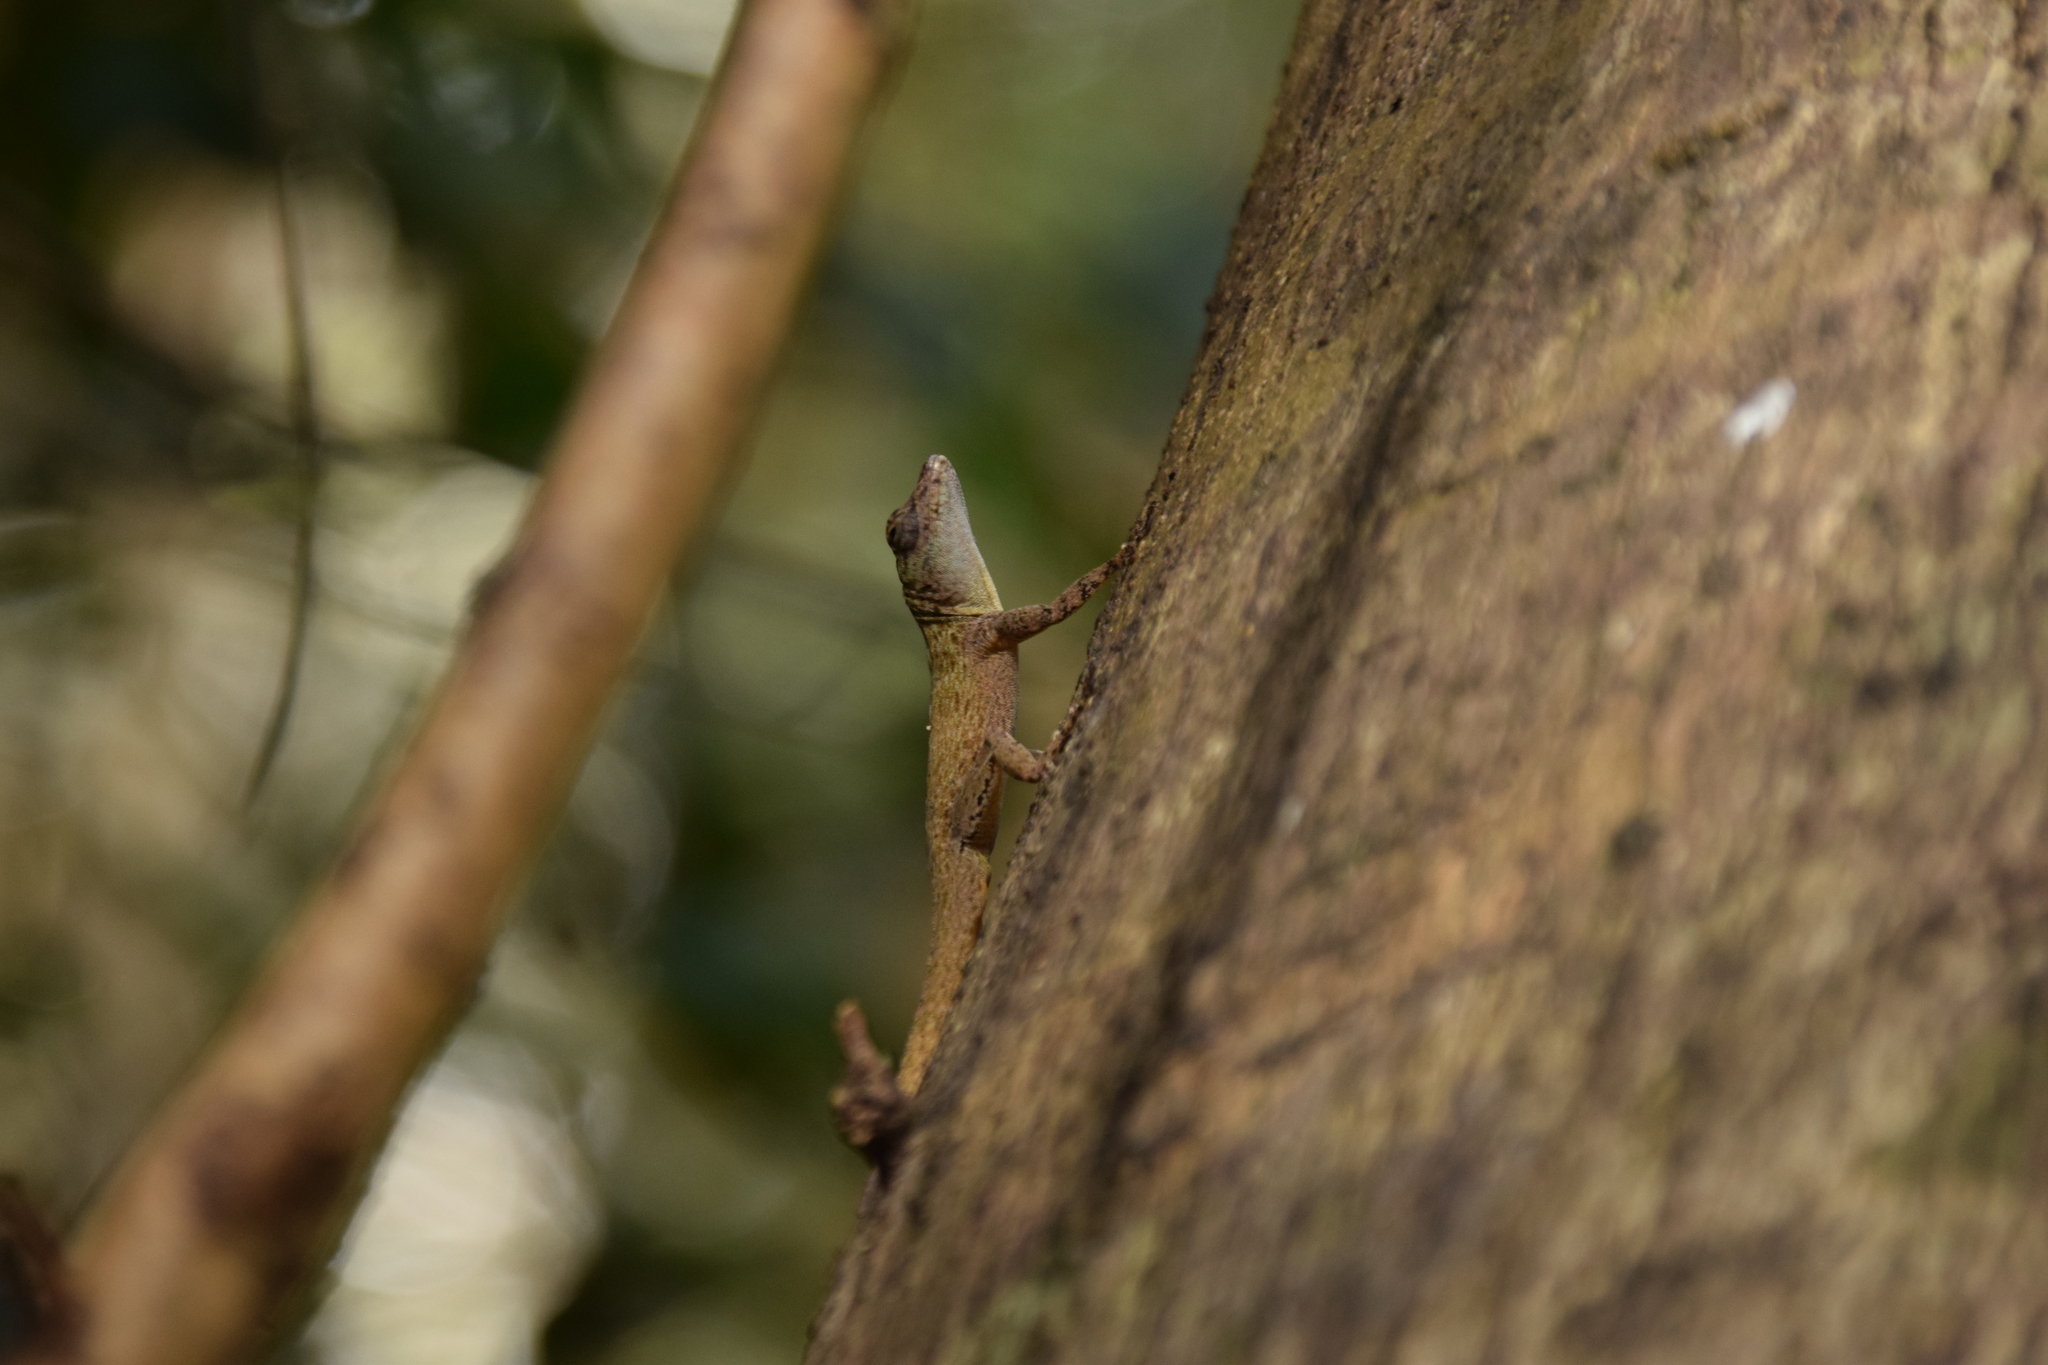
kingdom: Animalia
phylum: Chordata
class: Squamata
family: Dactyloidae
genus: Anolis
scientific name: Anolis distichus
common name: Bark anole
